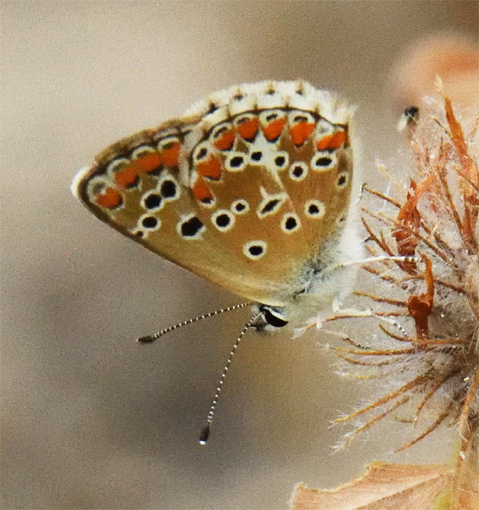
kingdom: Animalia
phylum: Arthropoda
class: Insecta
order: Lepidoptera
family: Lycaenidae
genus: Aricia
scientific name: Aricia agestis
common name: Brown argus
